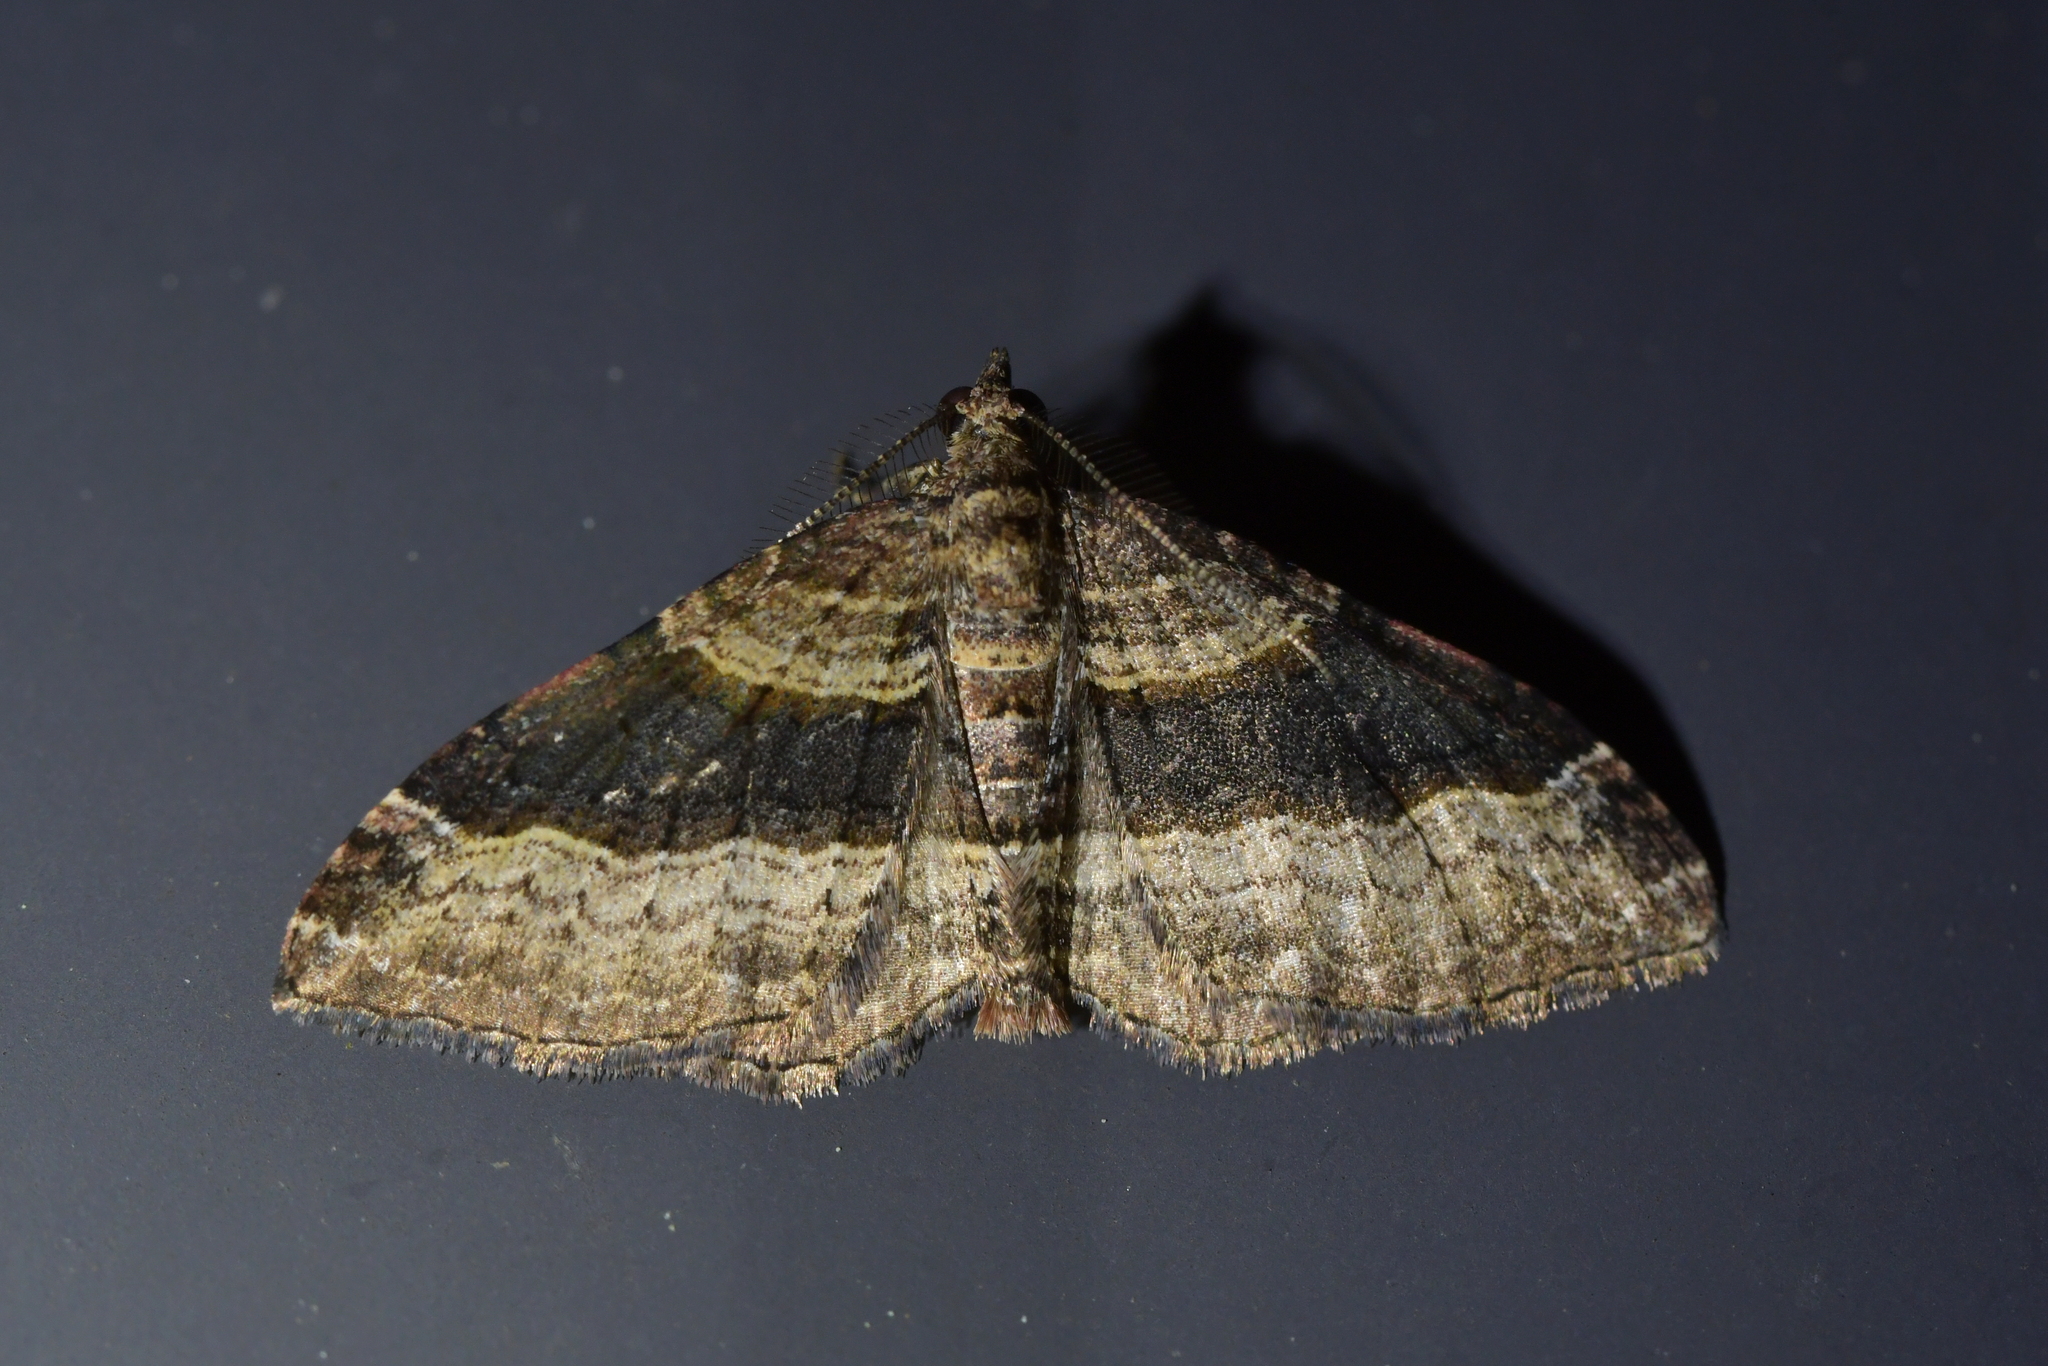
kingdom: Animalia
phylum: Arthropoda
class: Insecta
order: Lepidoptera
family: Geometridae
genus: Epyaxa
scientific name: Epyaxa lucidata
